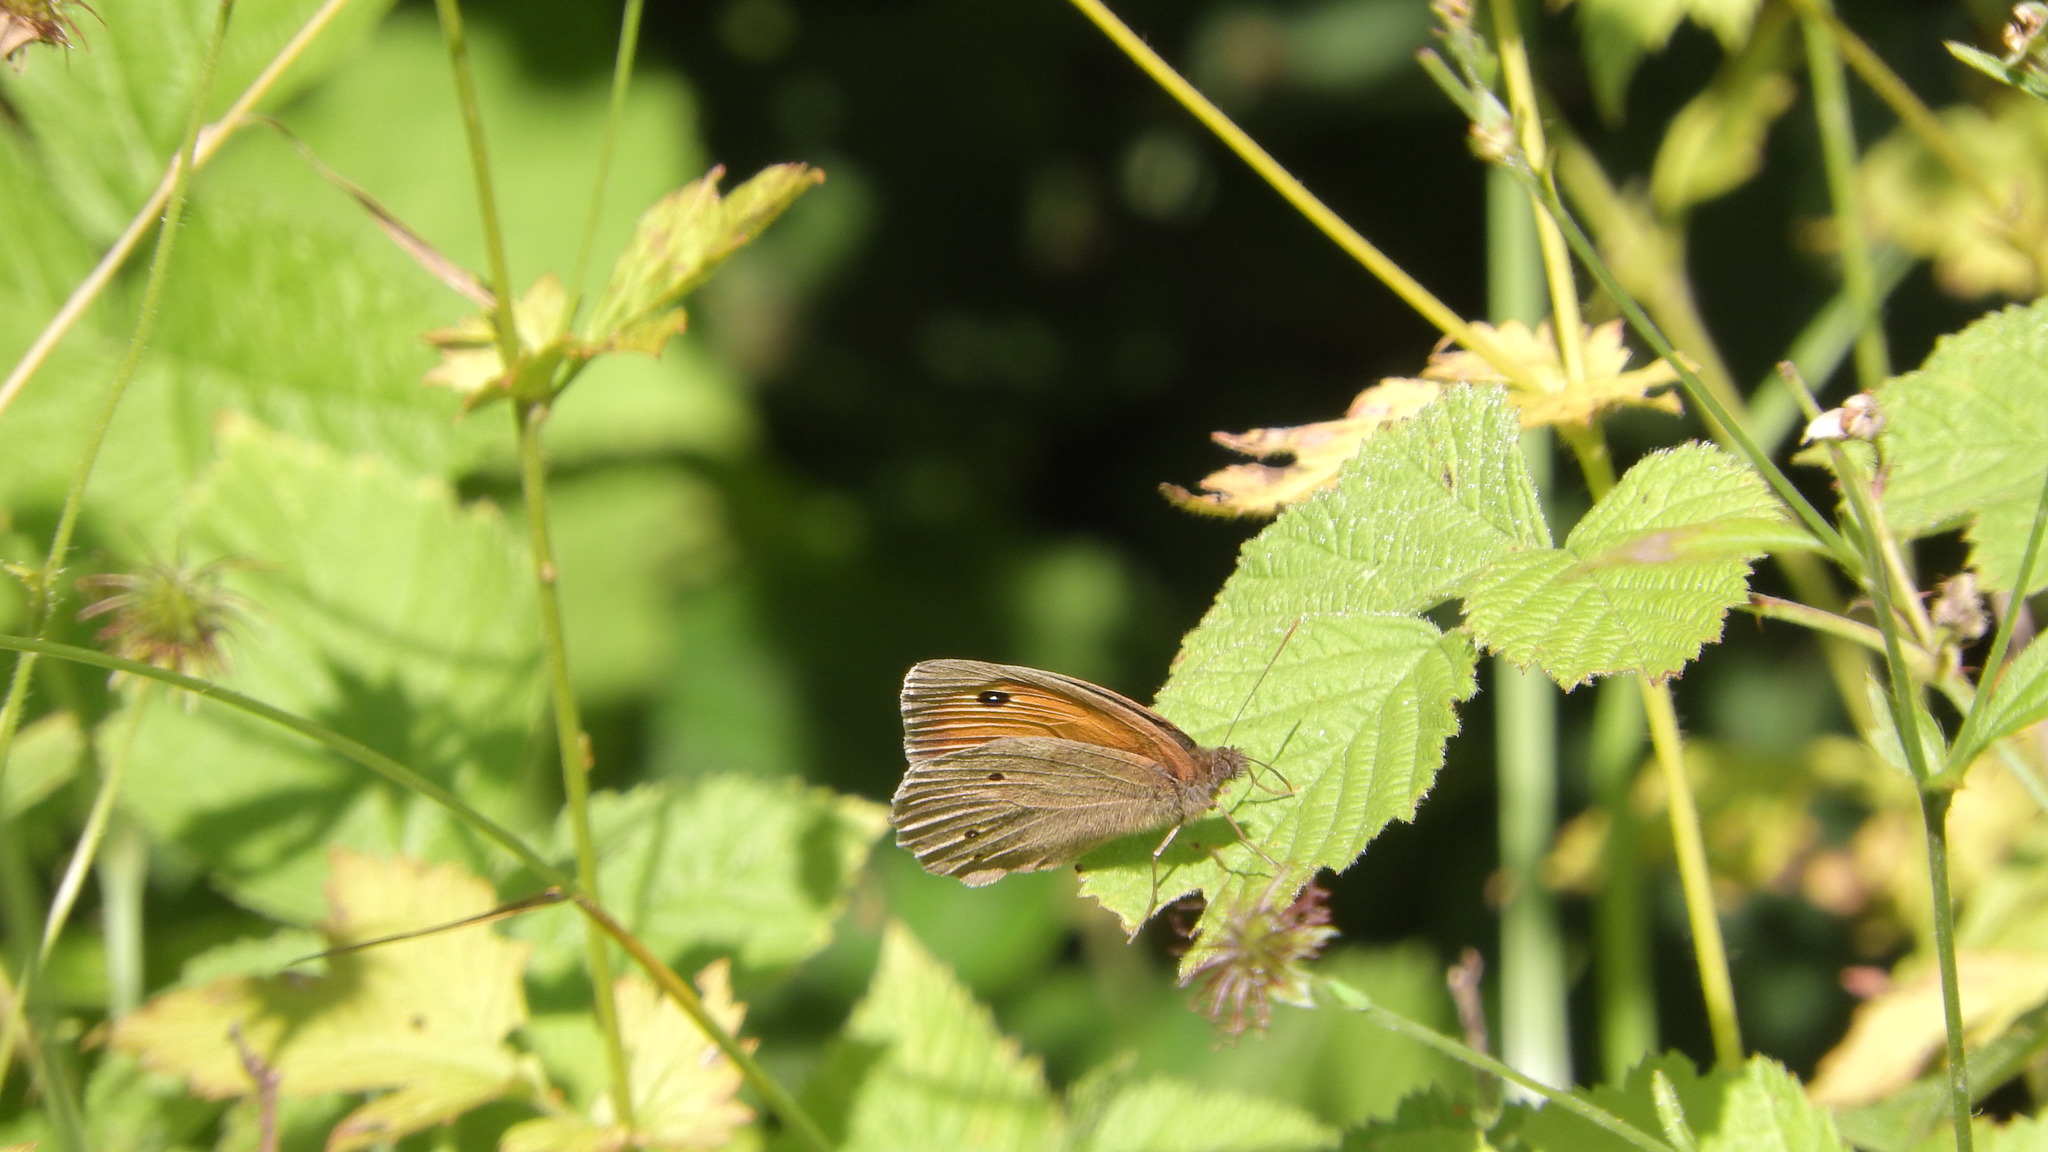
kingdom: Animalia
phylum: Arthropoda
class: Insecta
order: Lepidoptera
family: Nymphalidae
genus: Maniola
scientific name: Maniola jurtina
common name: Meadow brown
